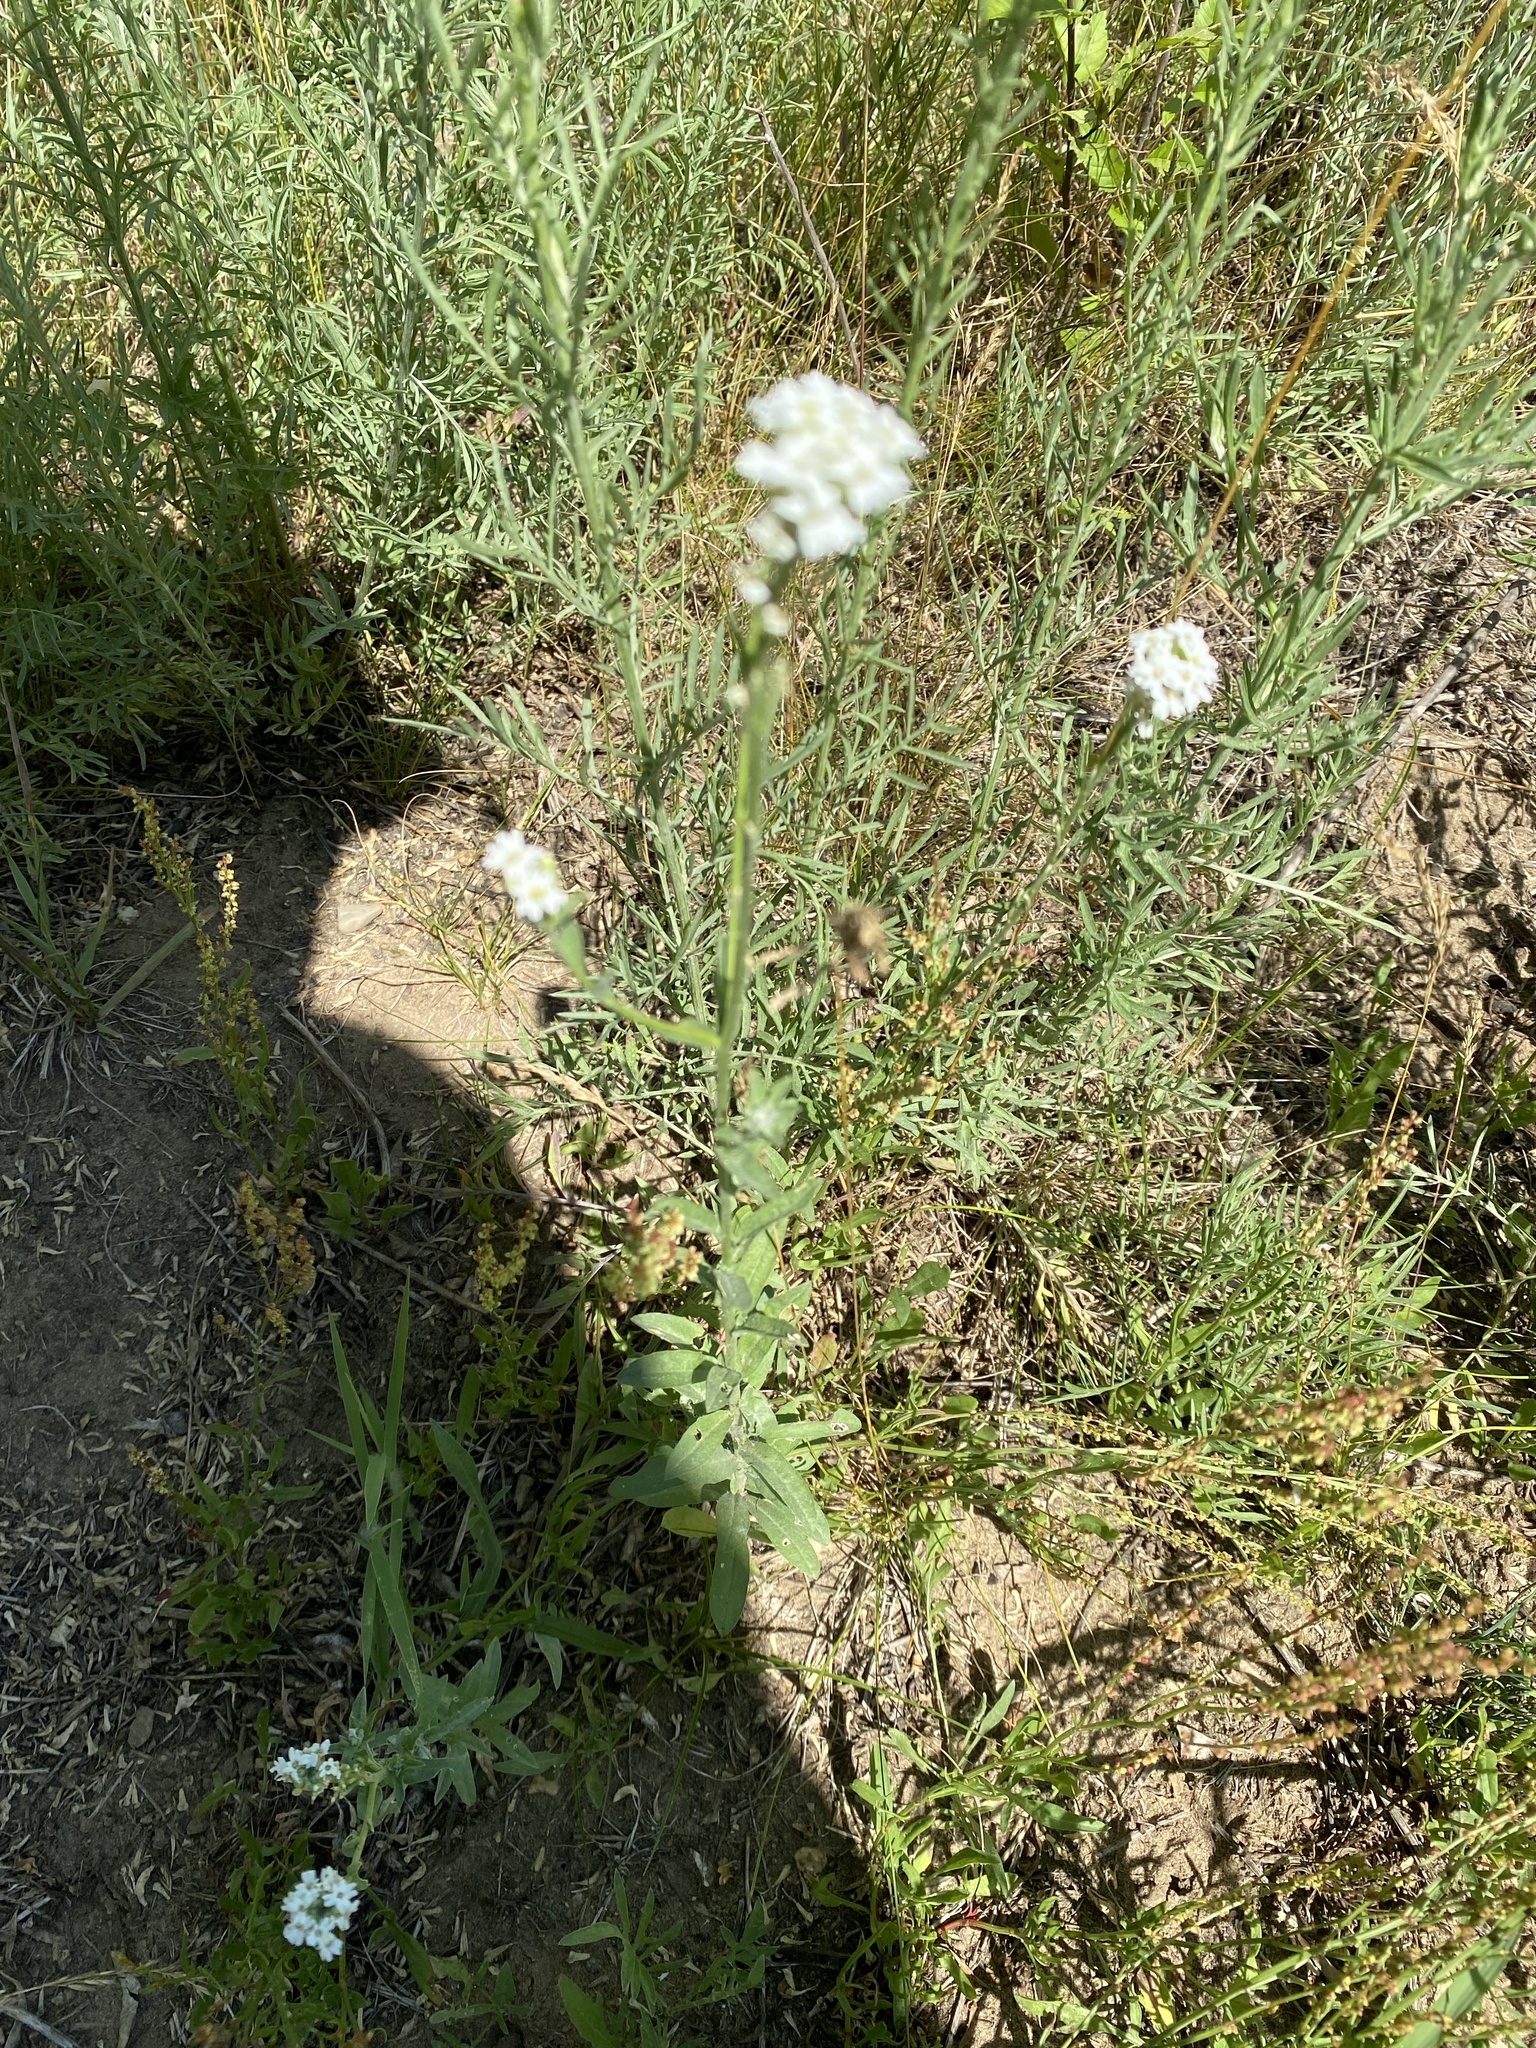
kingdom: Plantae
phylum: Tracheophyta
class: Magnoliopsida
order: Brassicales
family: Brassicaceae
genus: Berteroa
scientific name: Berteroa incana
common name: Hoary alison
